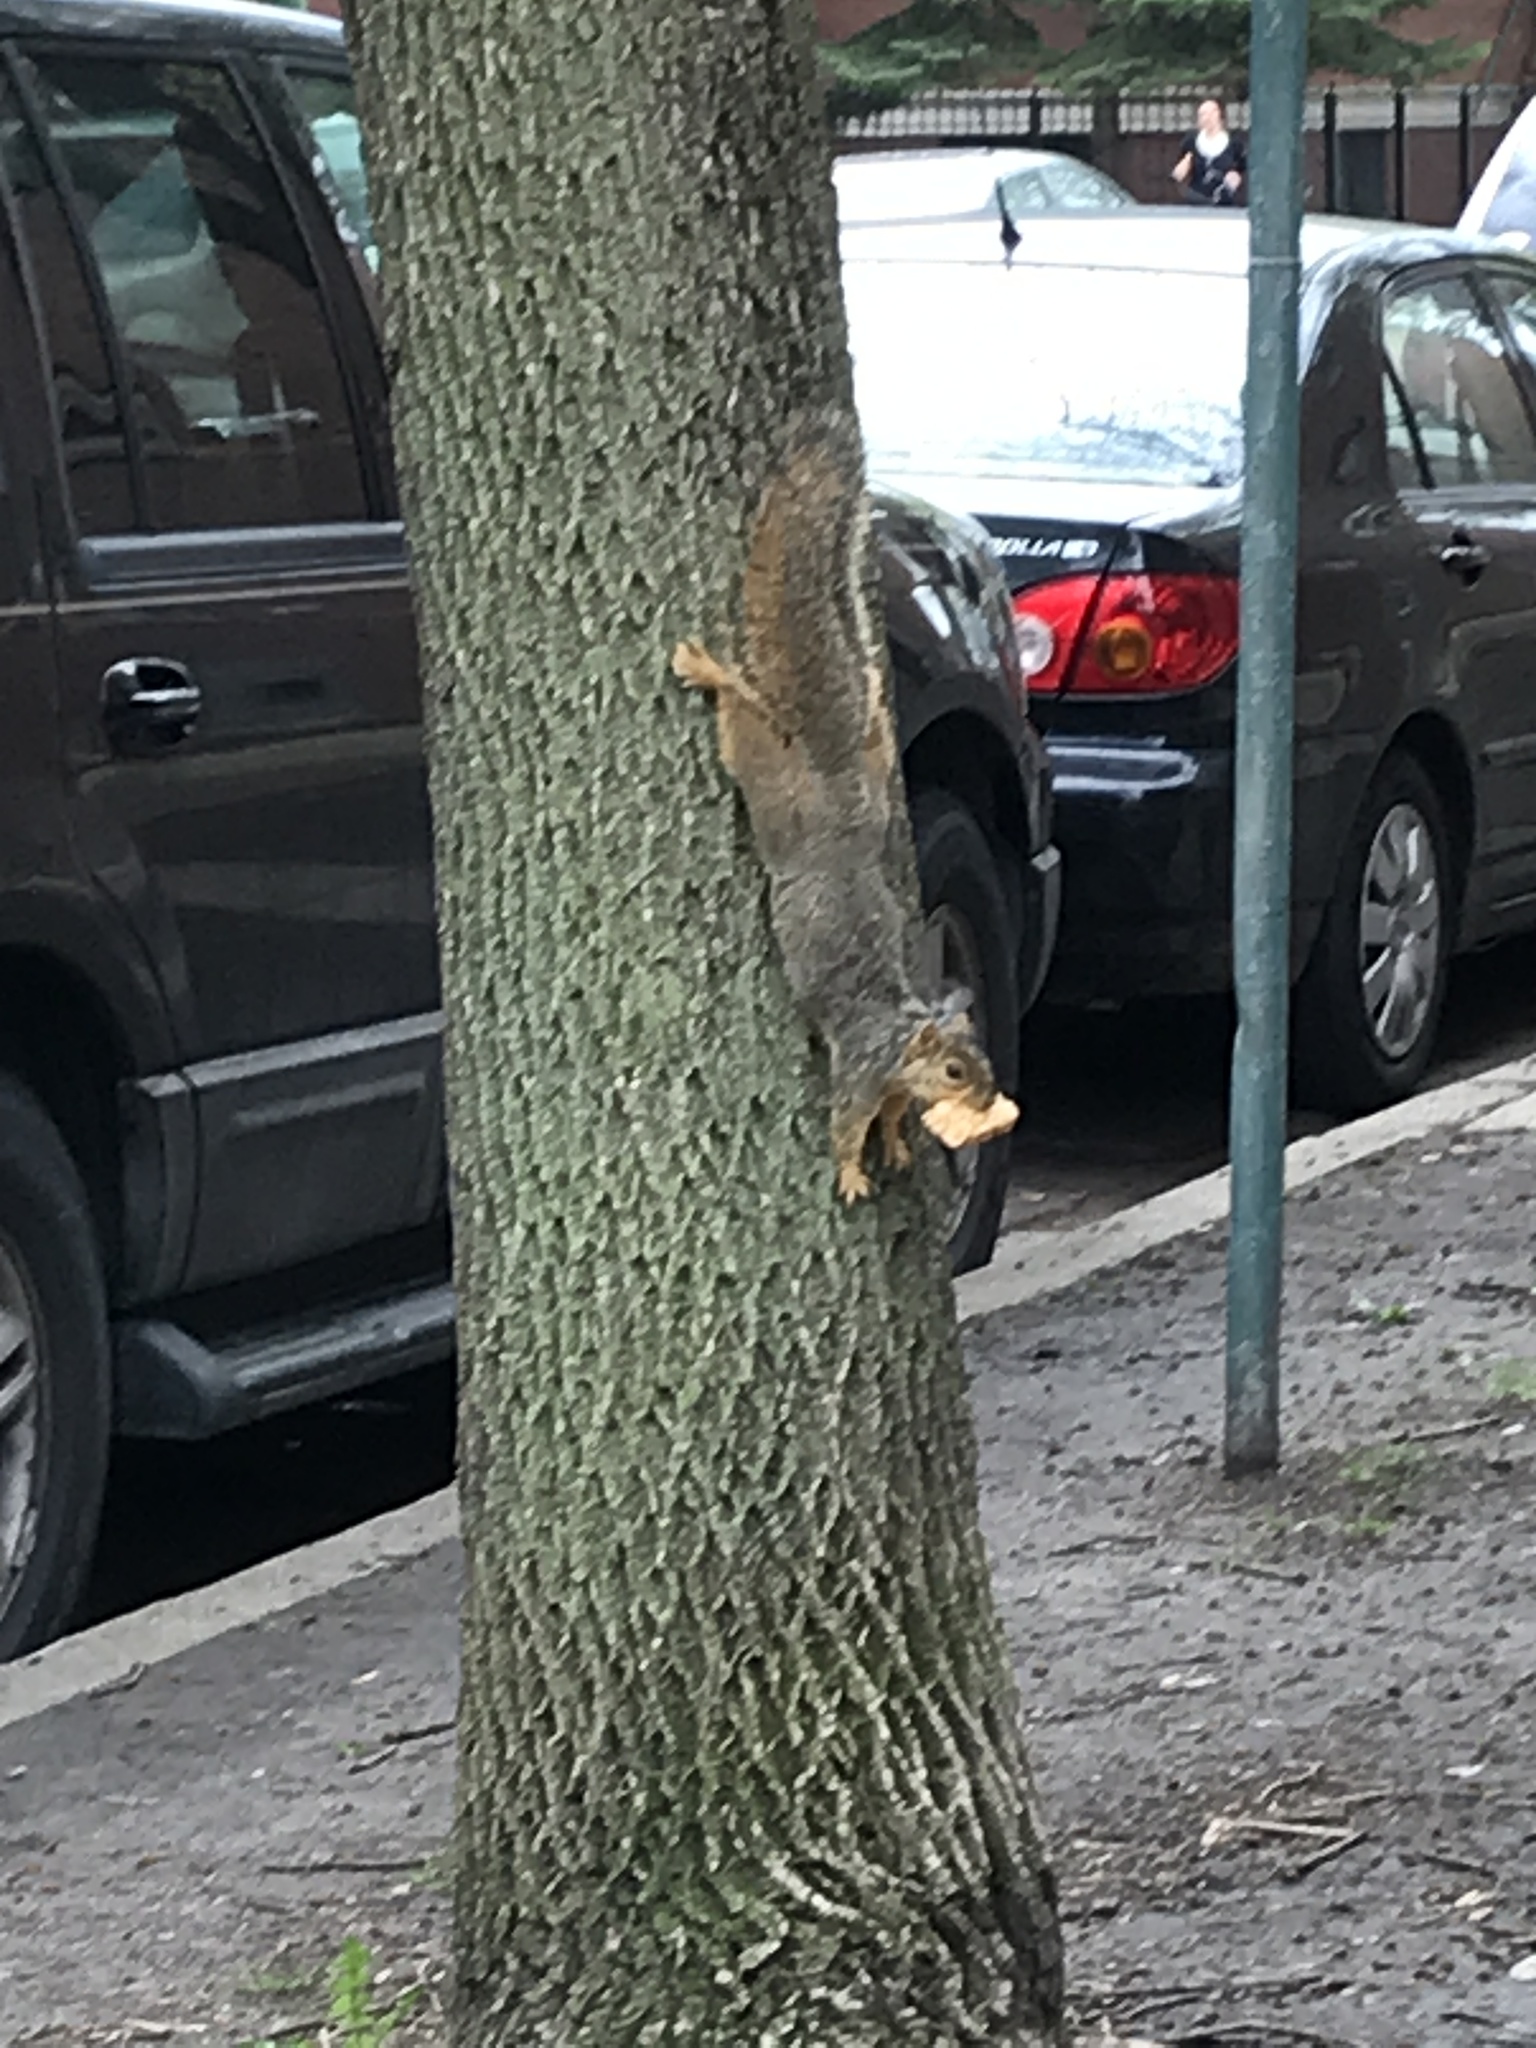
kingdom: Animalia
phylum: Chordata
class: Mammalia
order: Rodentia
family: Sciuridae
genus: Sciurus
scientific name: Sciurus niger
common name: Fox squirrel
